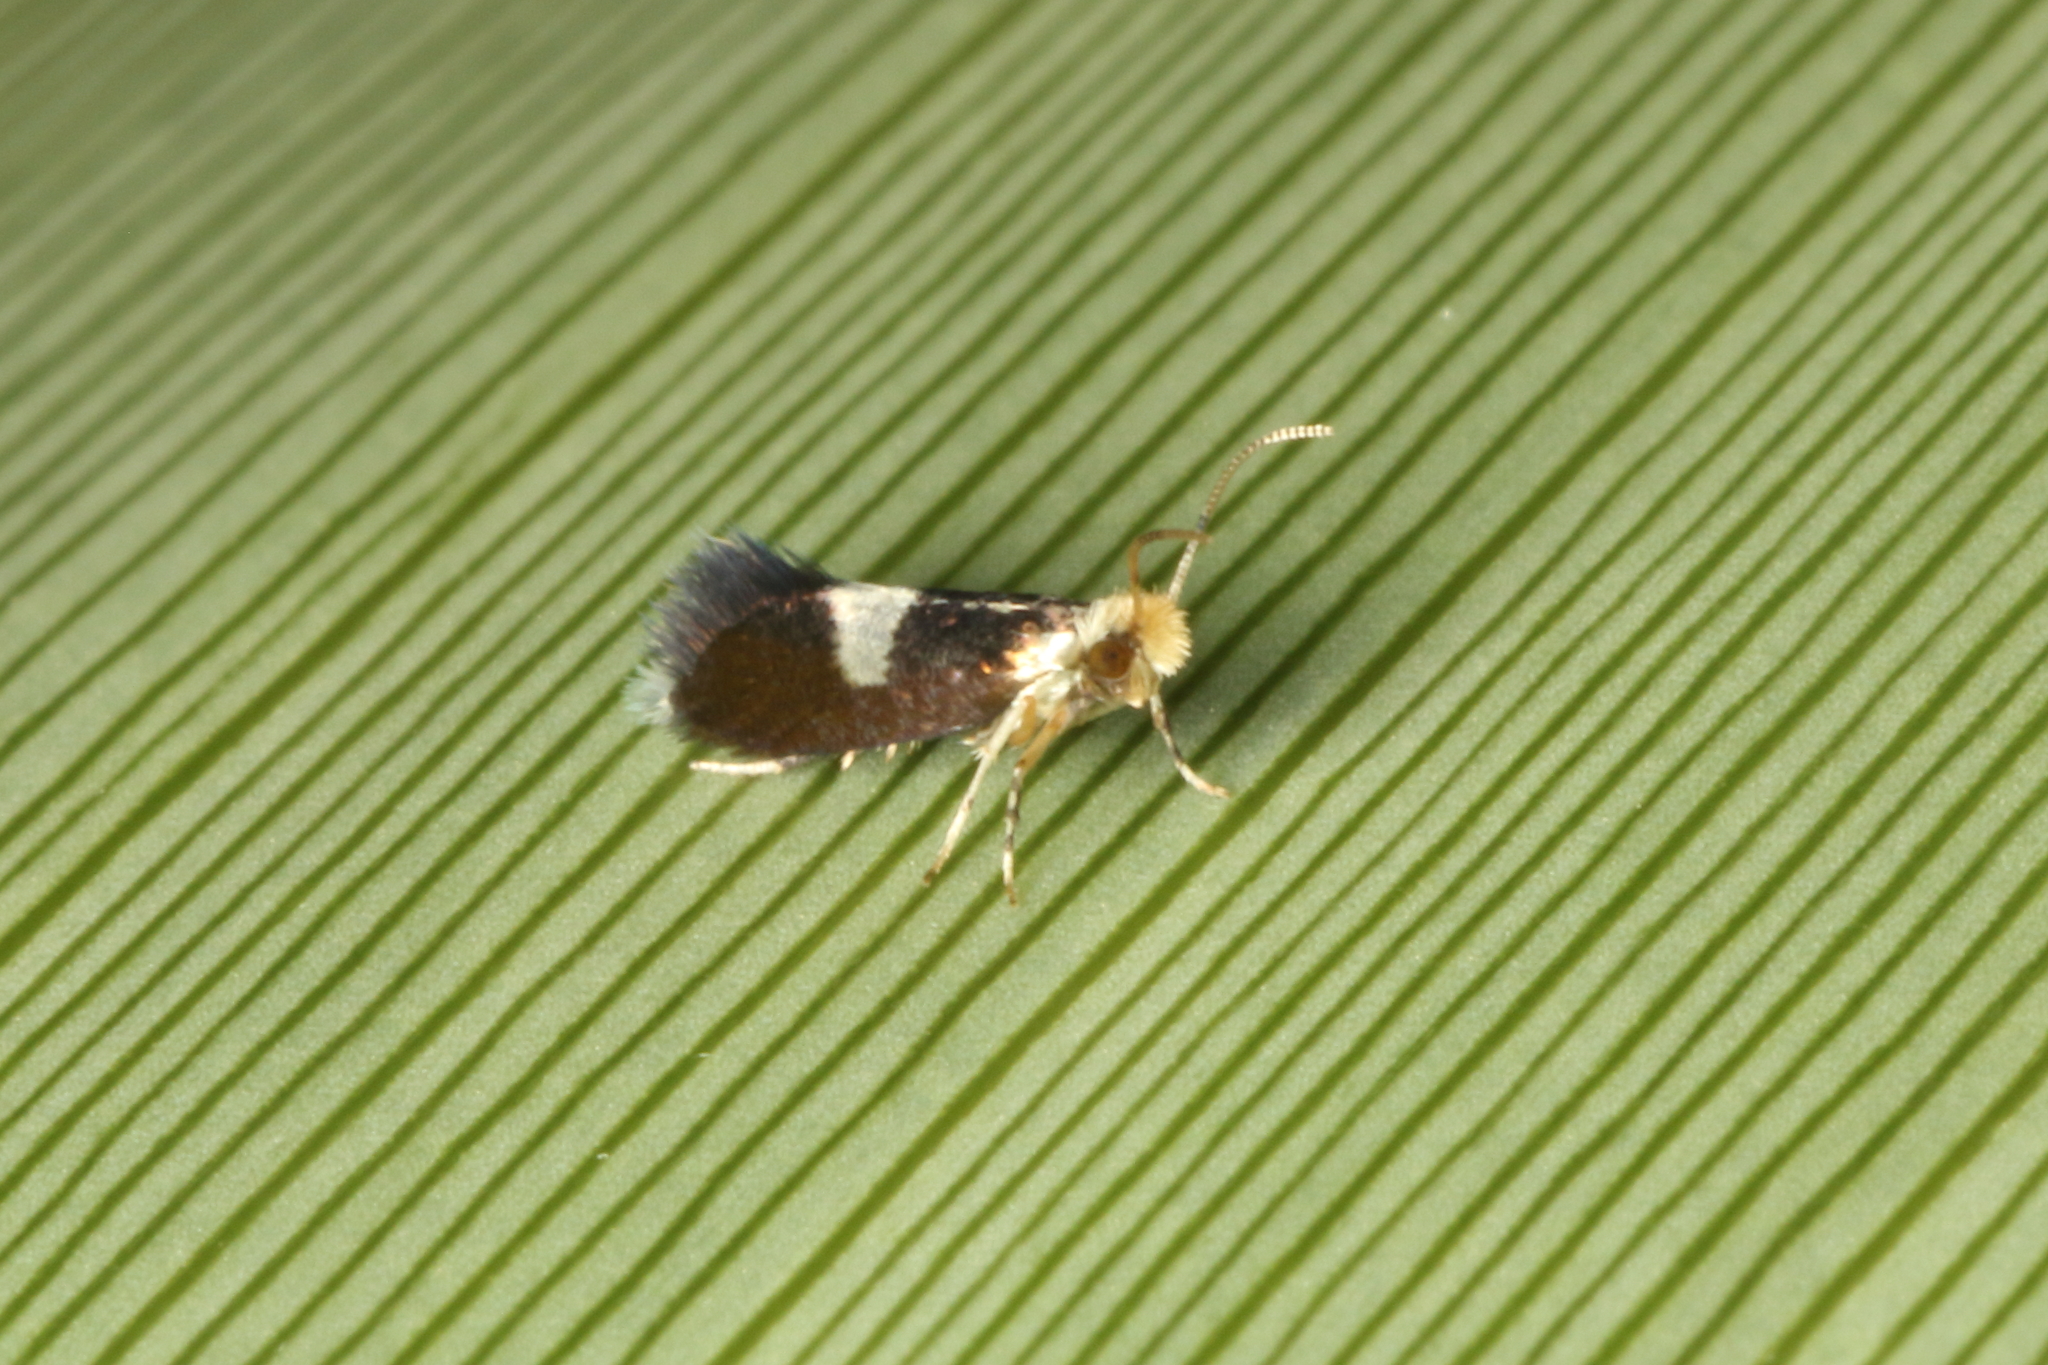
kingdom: Animalia
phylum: Arthropoda
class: Insecta
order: Lepidoptera
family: Micropterigidae
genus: Zealandopterix
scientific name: Zealandopterix zonodoxa
